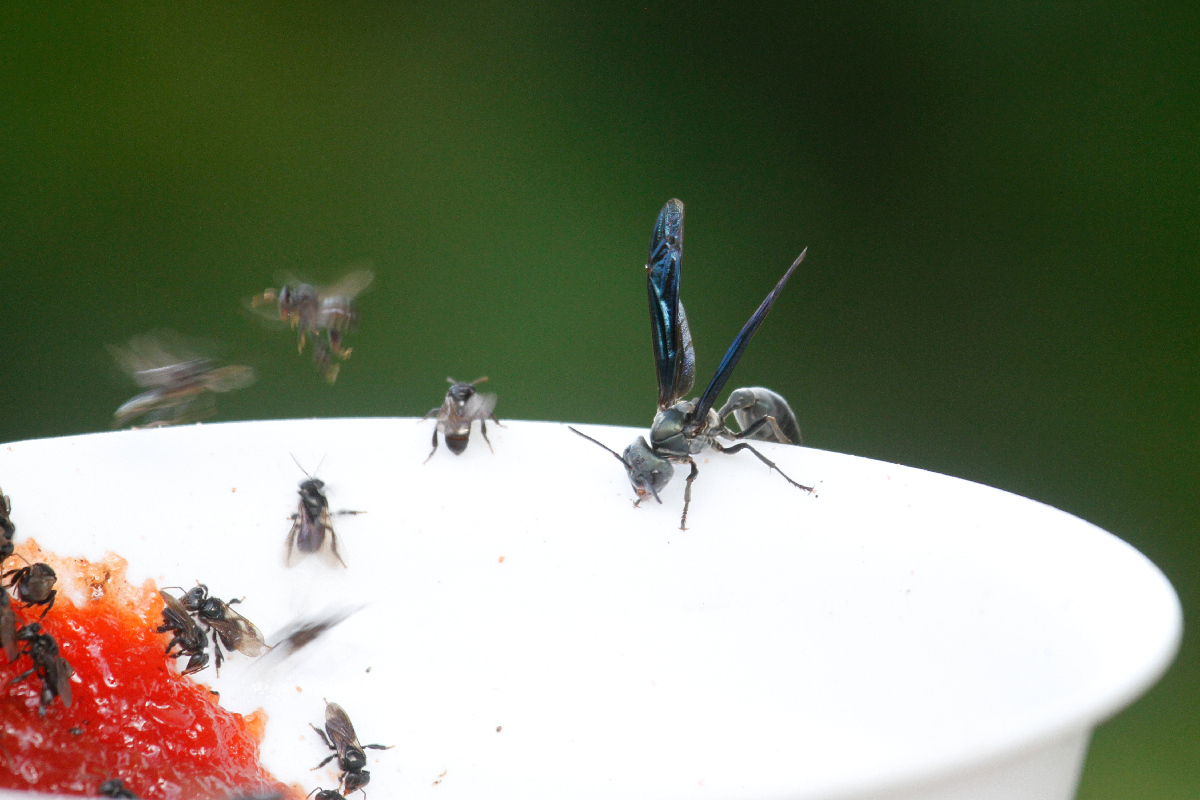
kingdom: Animalia
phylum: Arthropoda
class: Insecta
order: Hymenoptera
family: Vespidae
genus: Synoeca
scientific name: Synoeca septentrionalis
